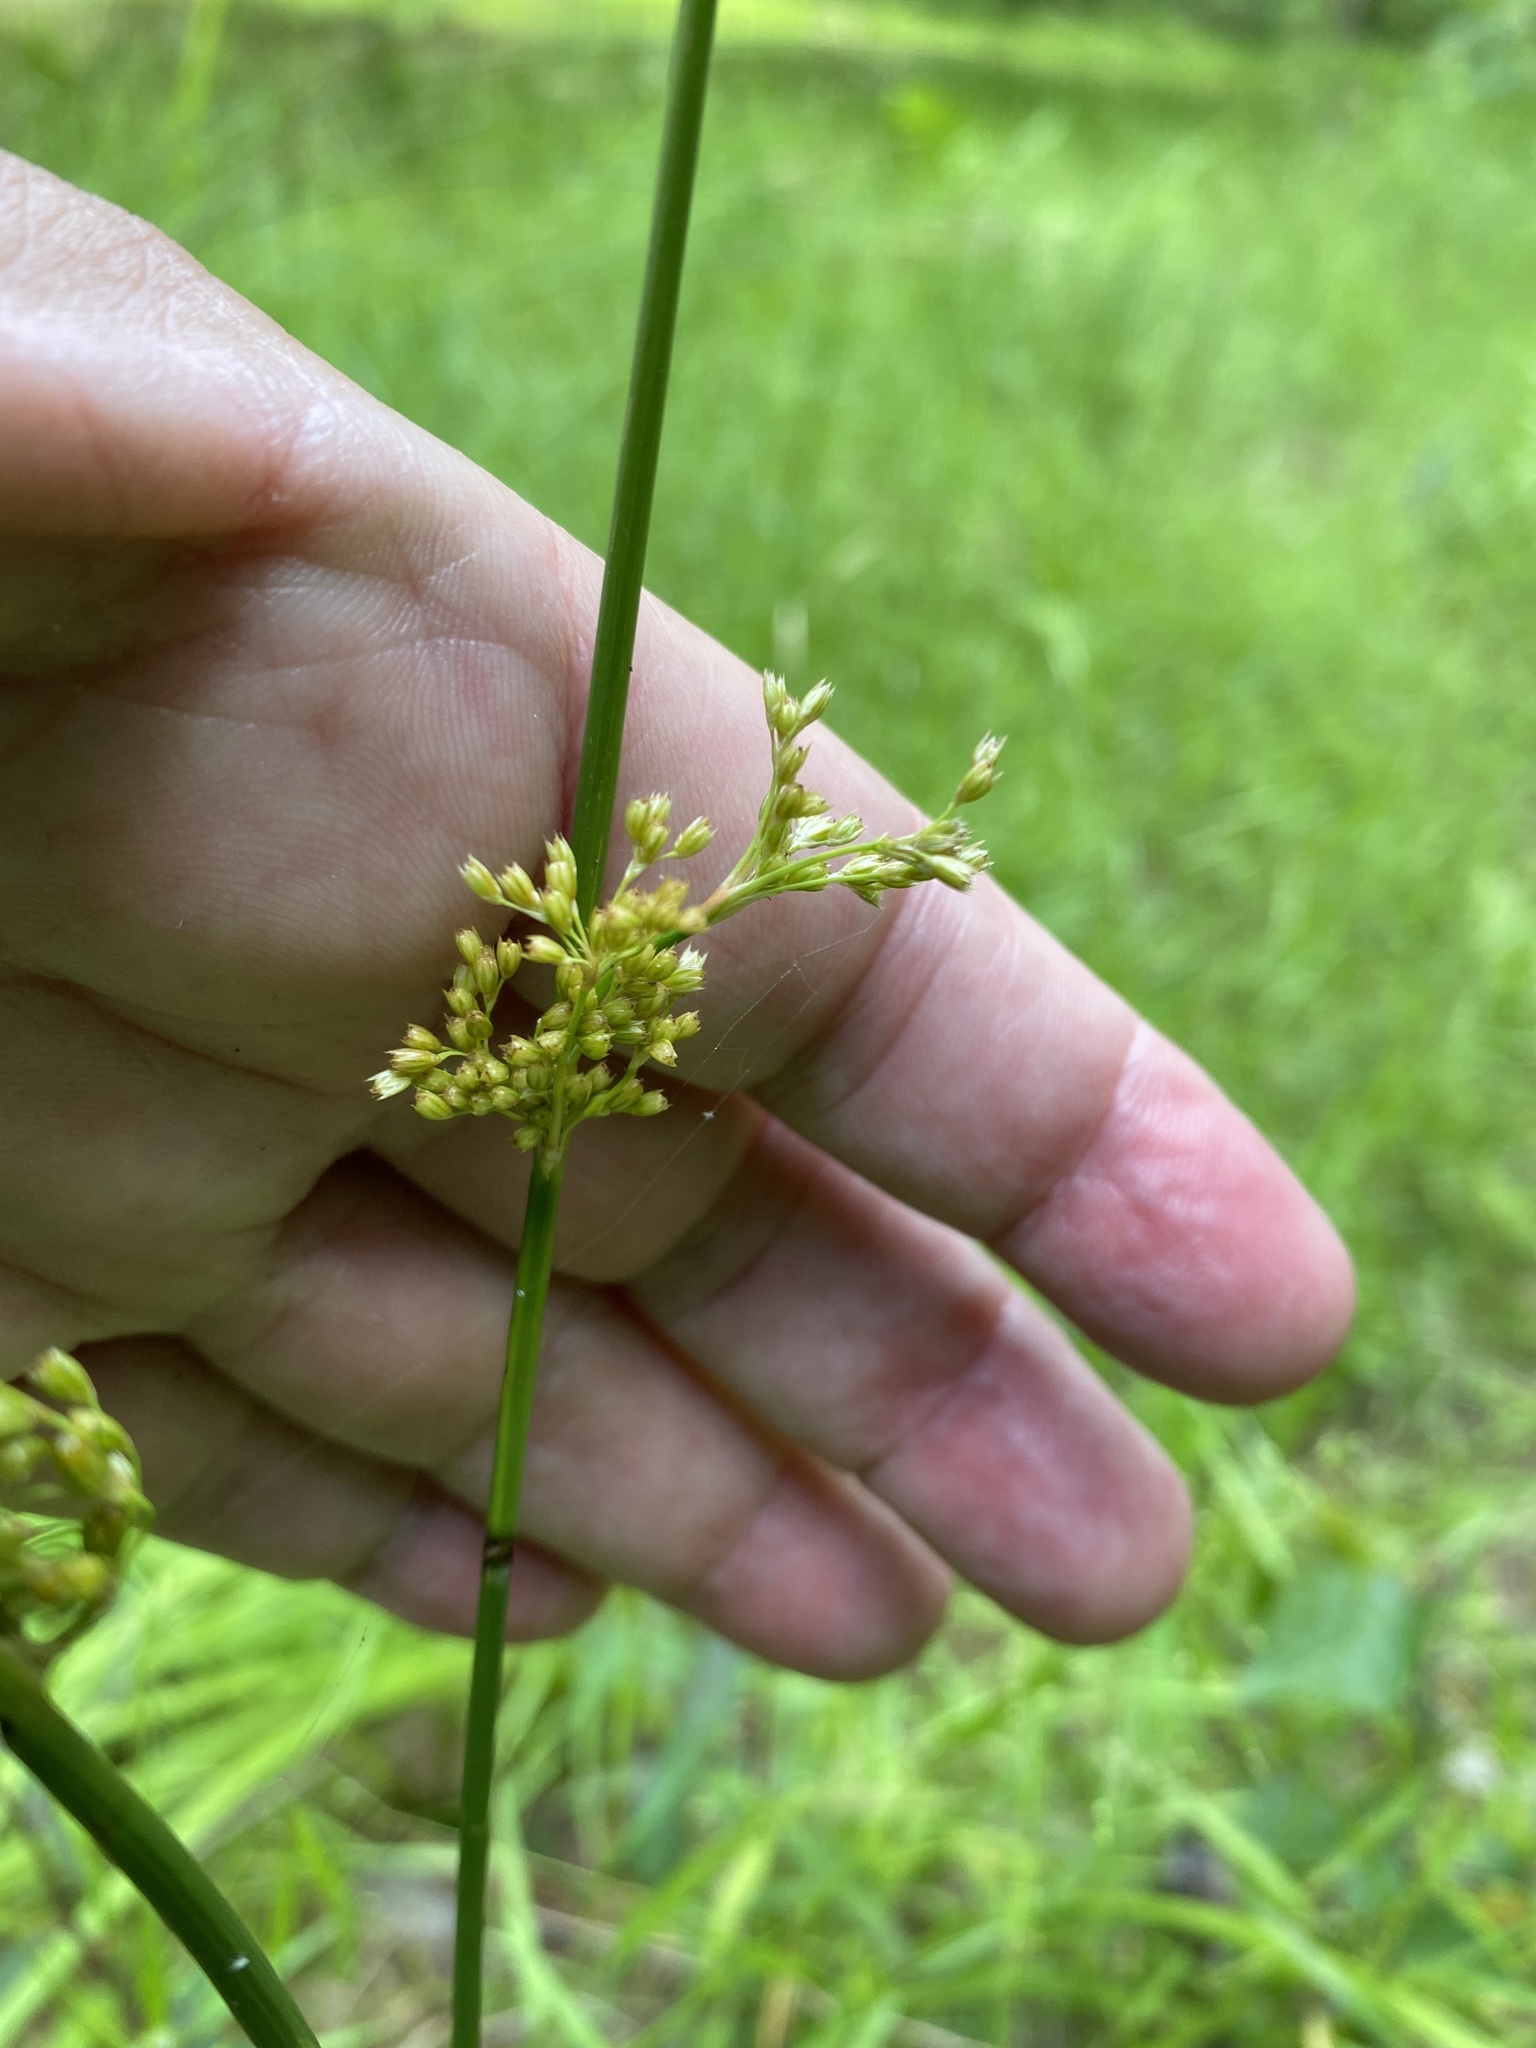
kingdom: Plantae
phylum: Tracheophyta
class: Liliopsida
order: Poales
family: Juncaceae
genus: Juncus
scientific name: Juncus effusus
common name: Soft rush
